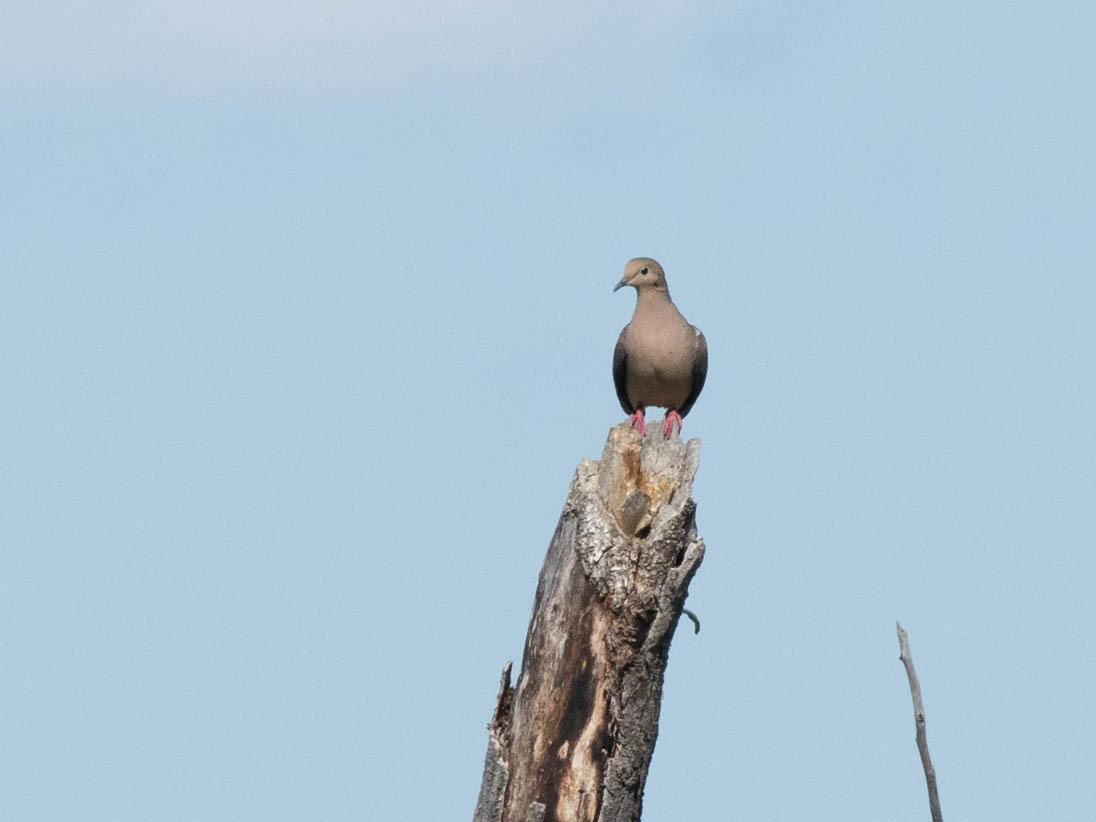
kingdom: Animalia
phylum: Chordata
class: Aves
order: Columbiformes
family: Columbidae
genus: Zenaida
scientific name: Zenaida macroura
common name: Mourning dove
